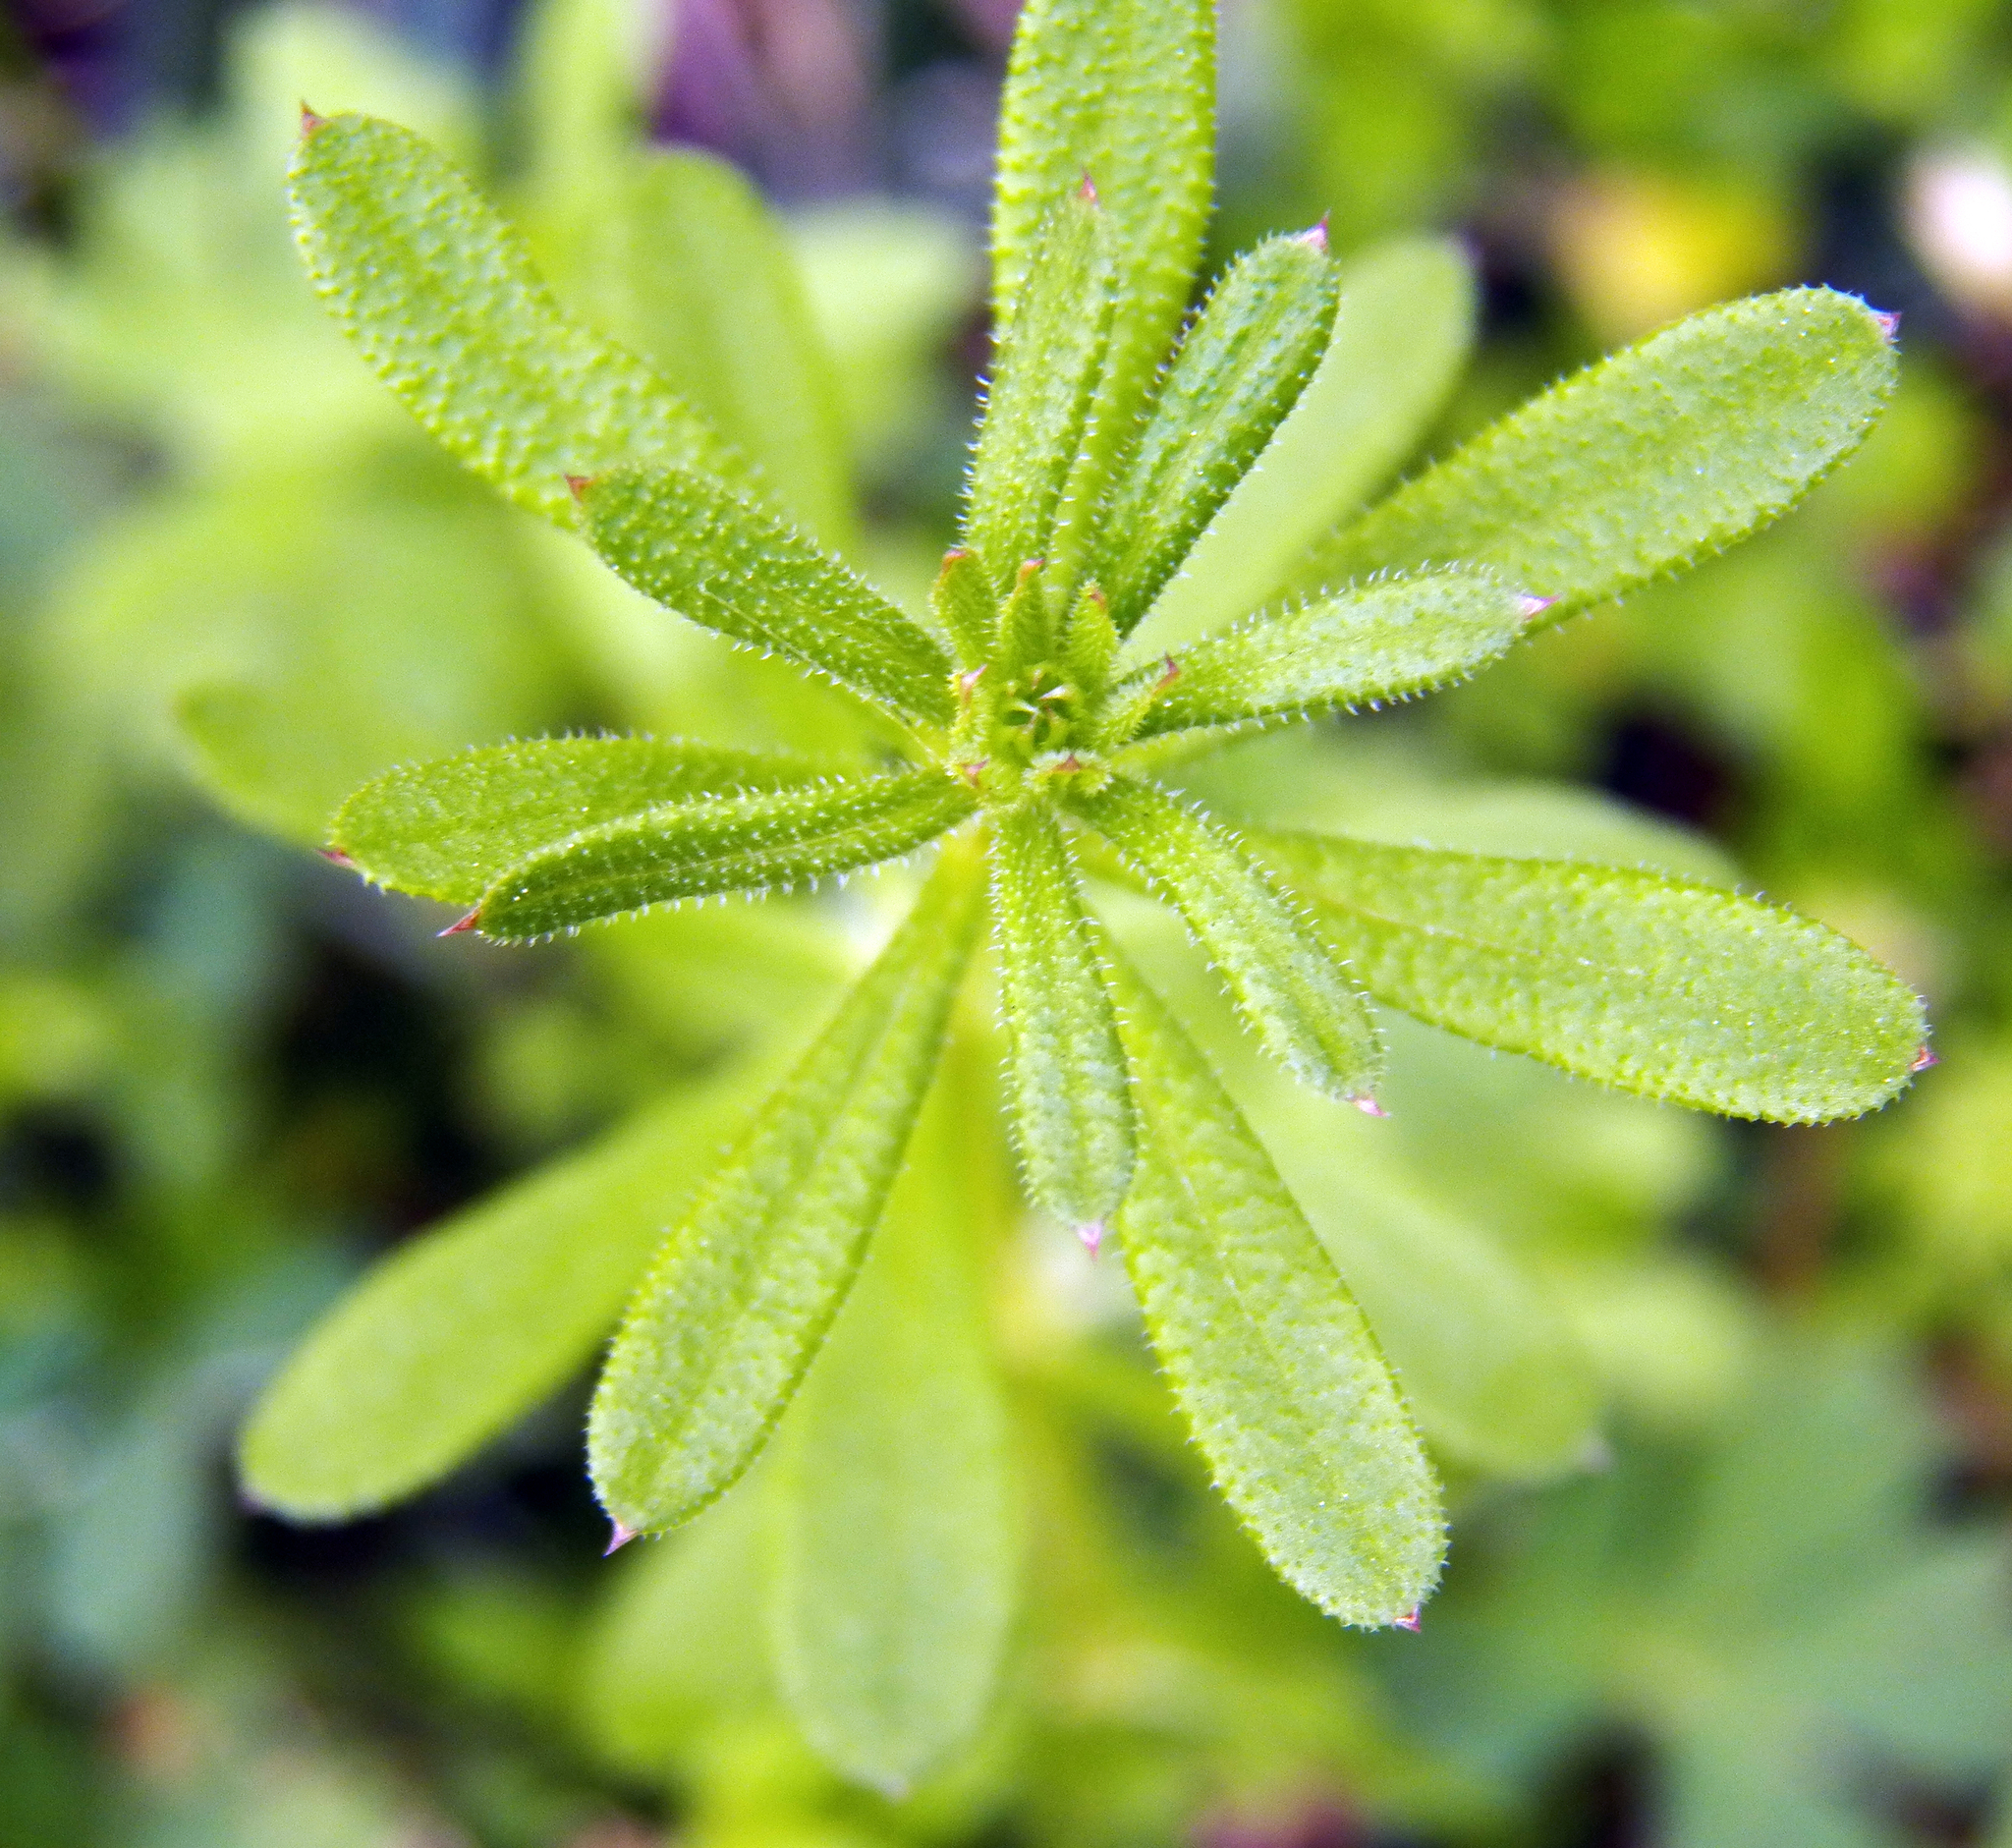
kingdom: Plantae
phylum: Tracheophyta
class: Magnoliopsida
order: Gentianales
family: Rubiaceae
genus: Galium
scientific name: Galium aparine
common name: Cleavers
